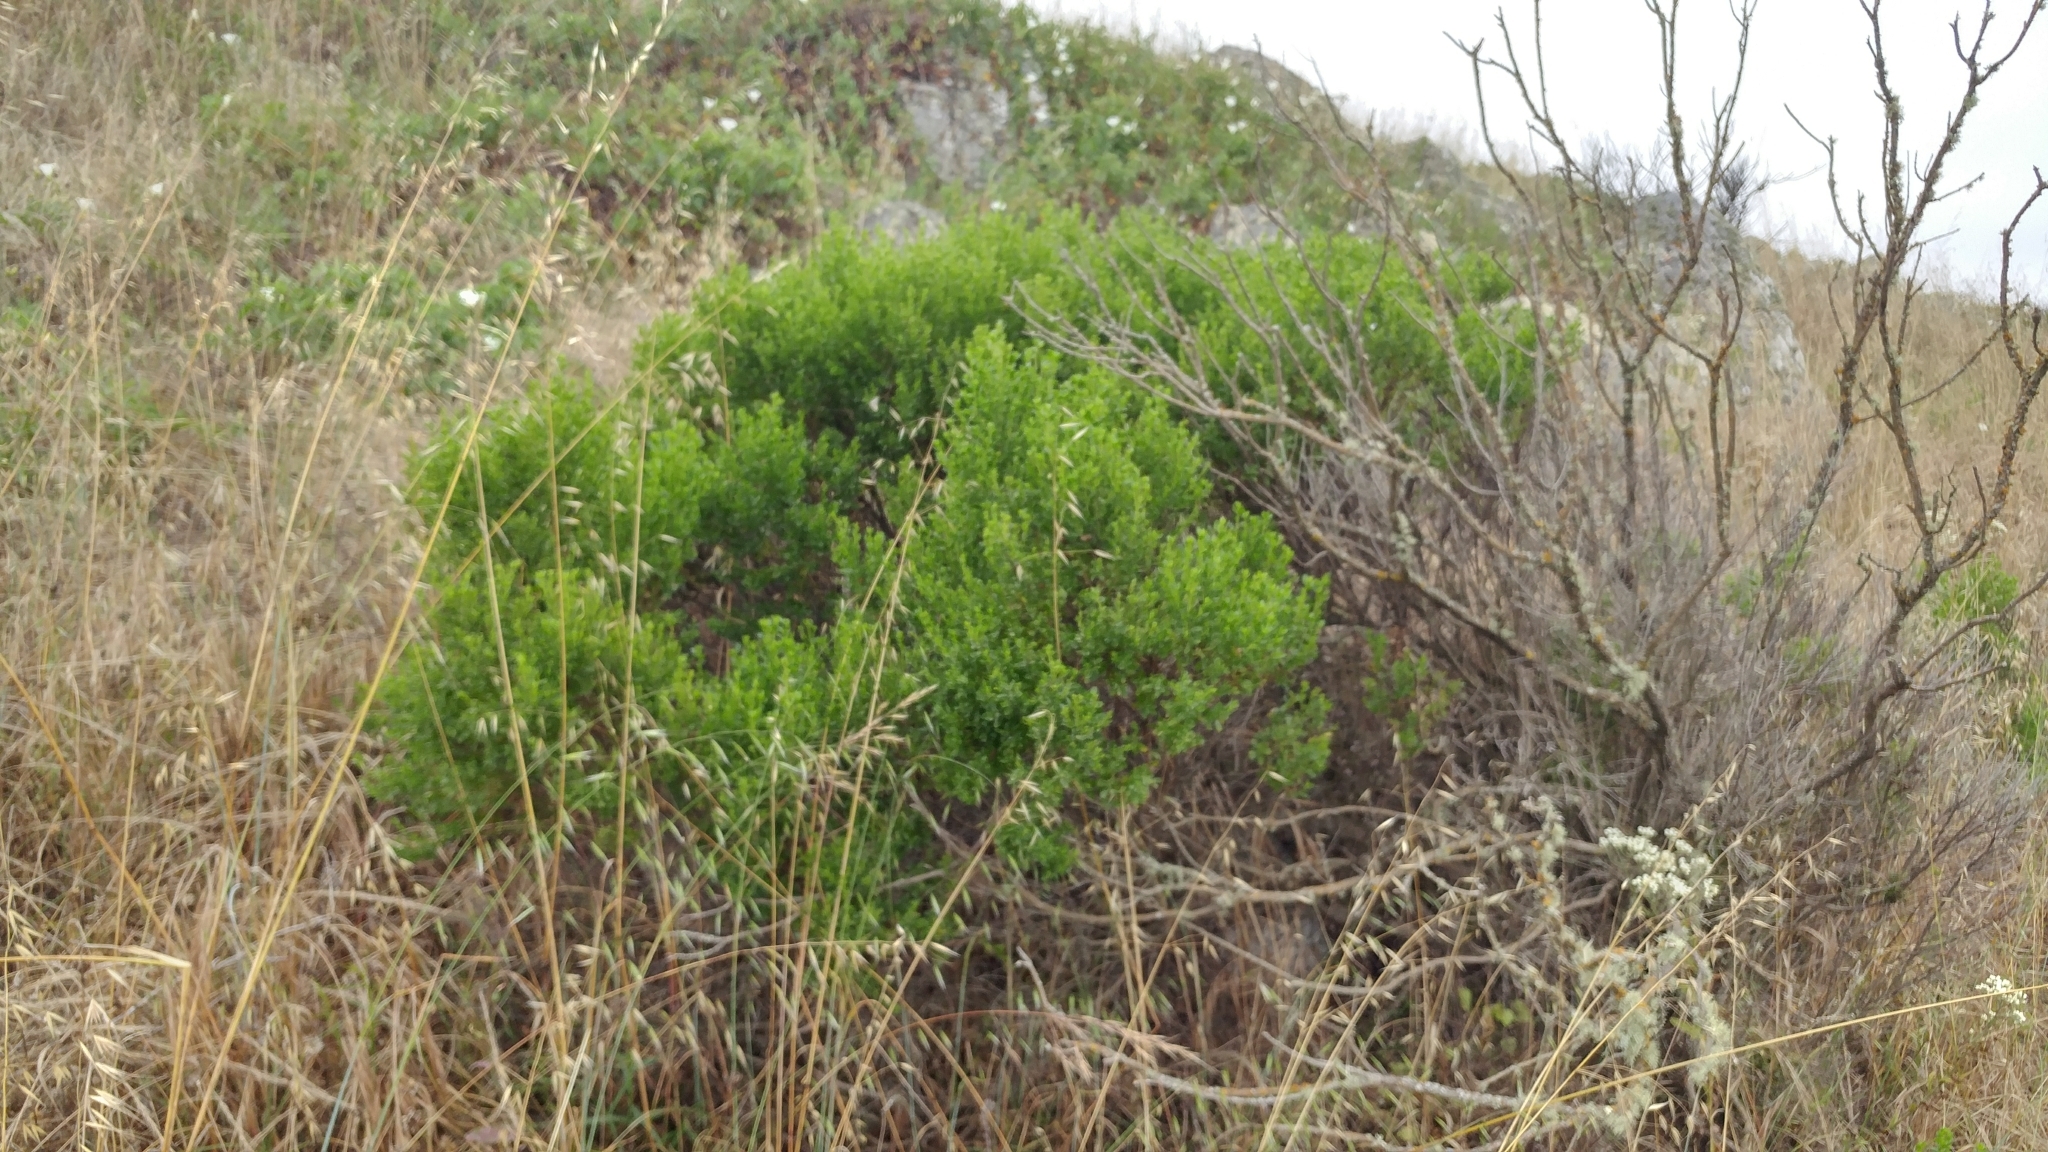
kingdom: Plantae
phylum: Tracheophyta
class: Magnoliopsida
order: Asterales
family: Asteraceae
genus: Baccharis
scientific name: Baccharis pilularis
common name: Coyotebrush
